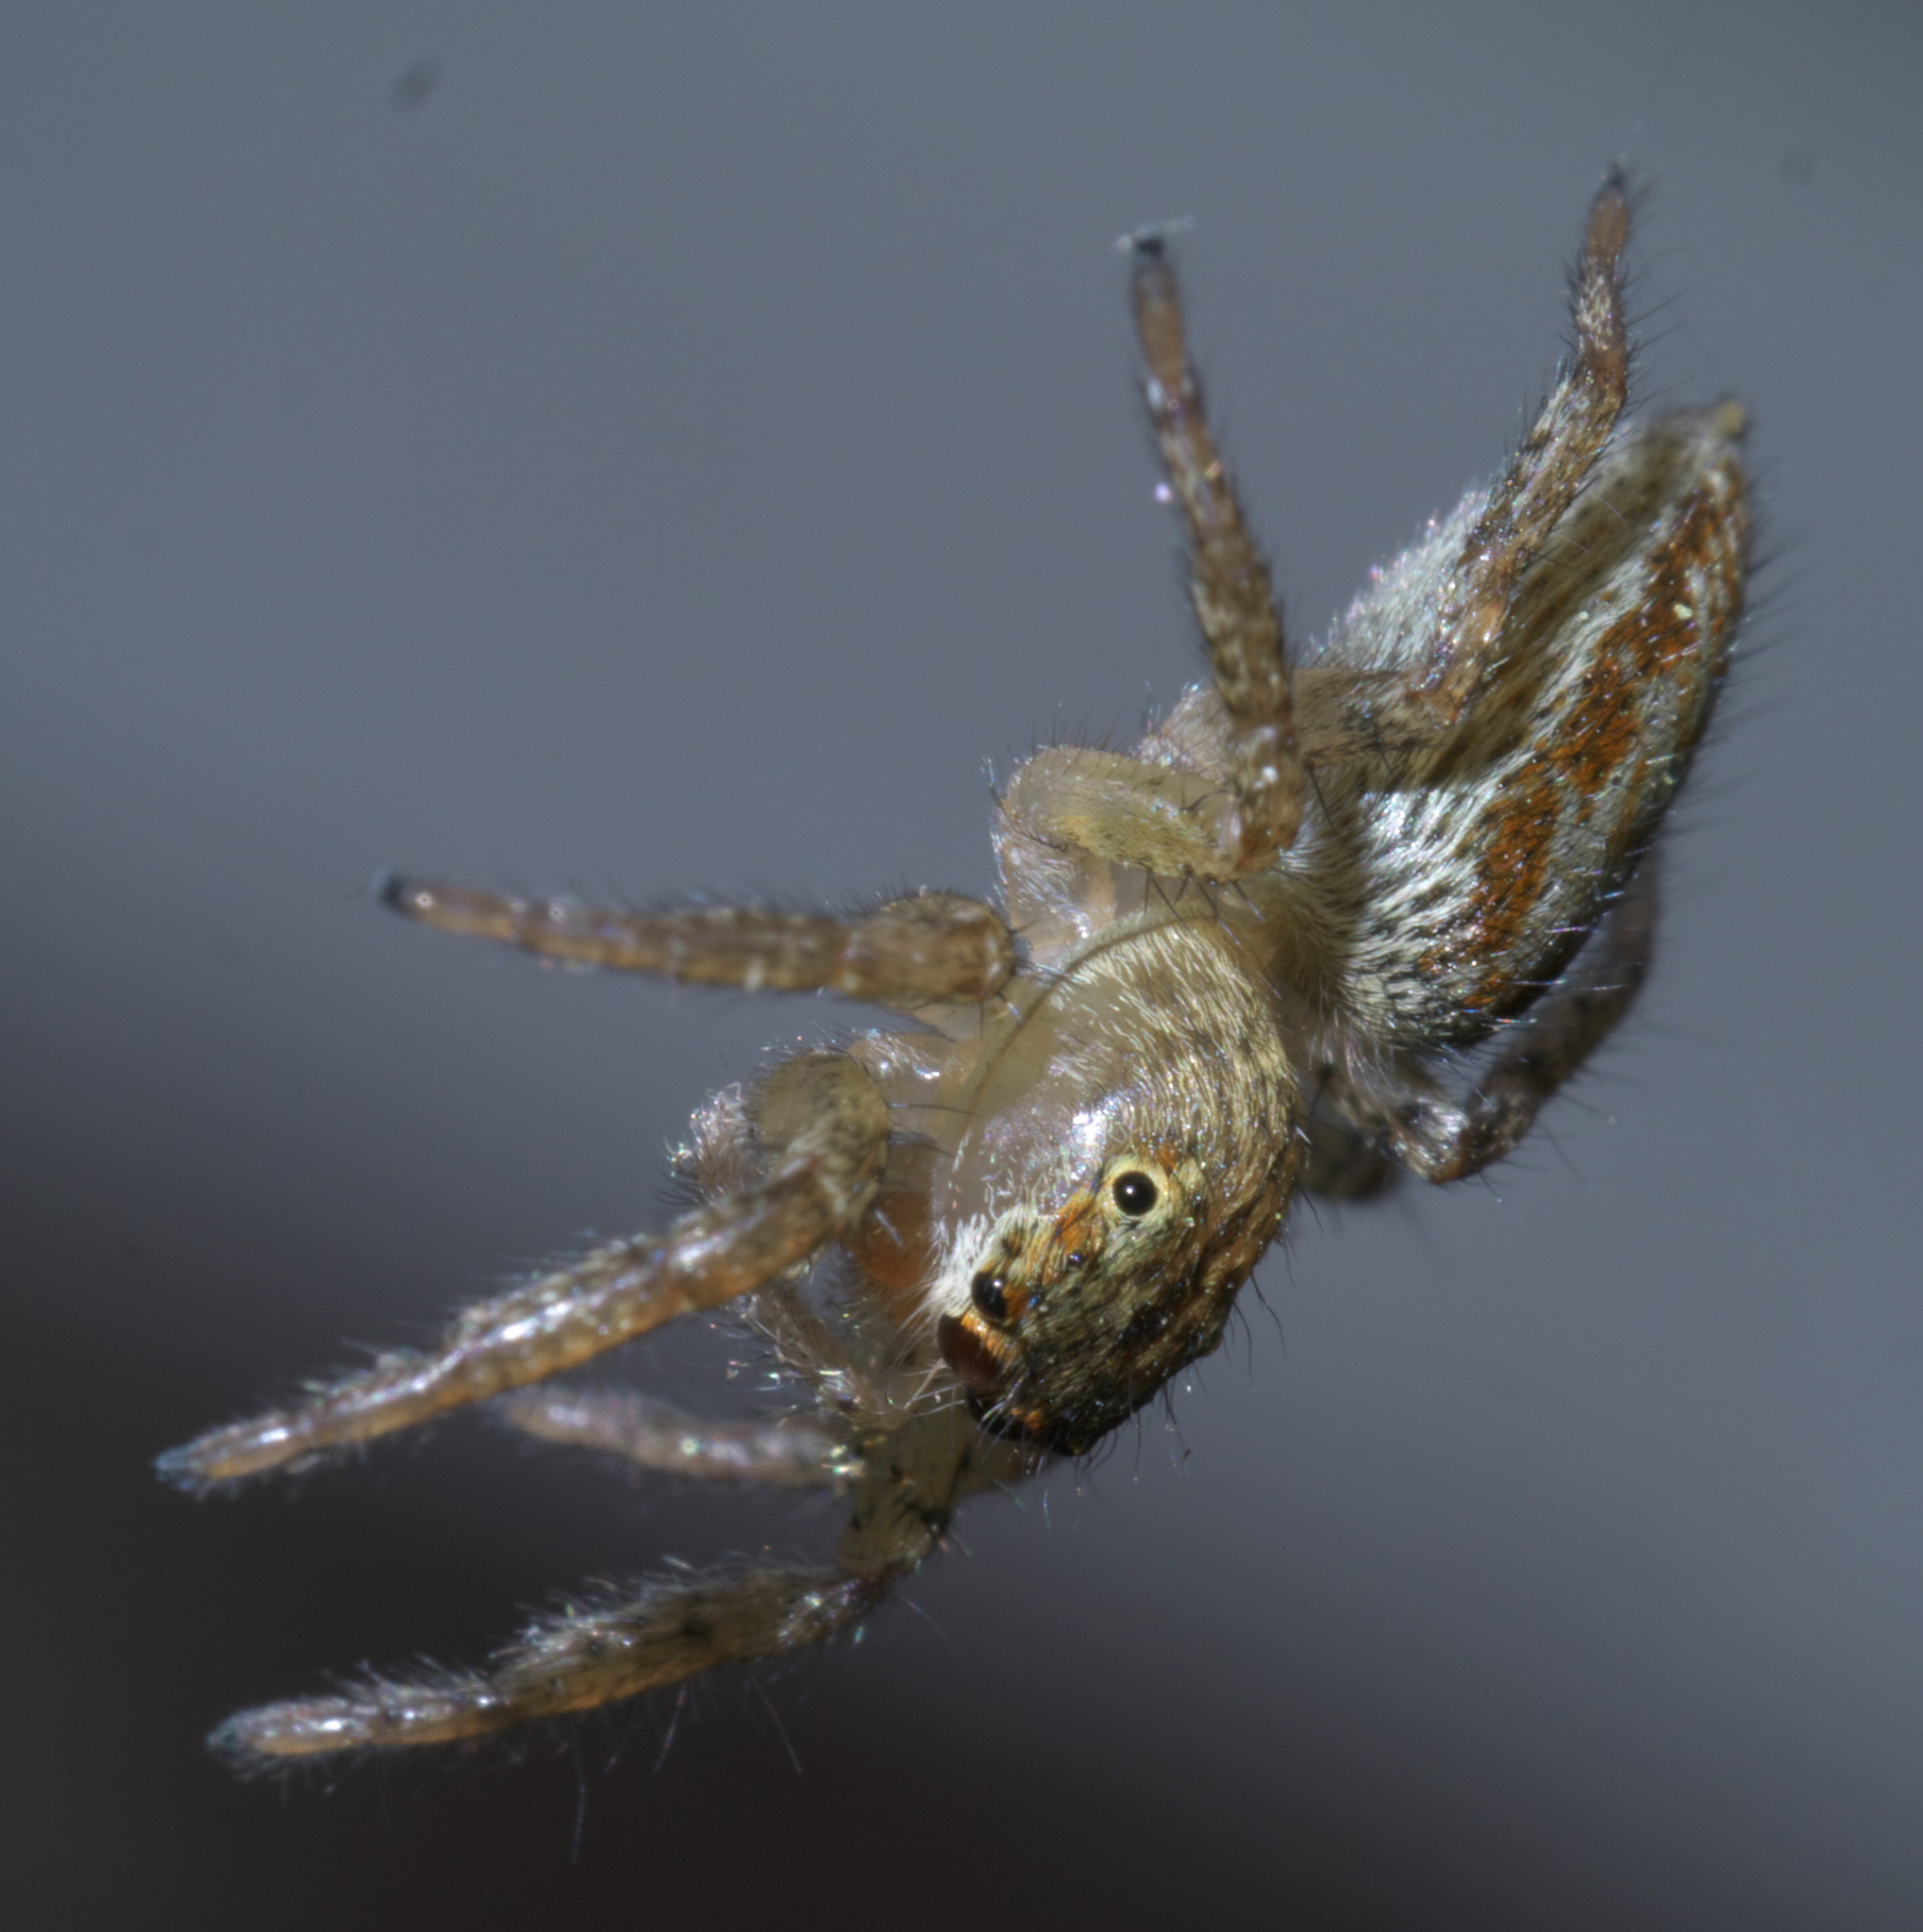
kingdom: Animalia
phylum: Arthropoda
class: Arachnida
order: Araneae
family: Salticidae
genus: Maevia
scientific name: Maevia inclemens
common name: Dimorphic jumper
